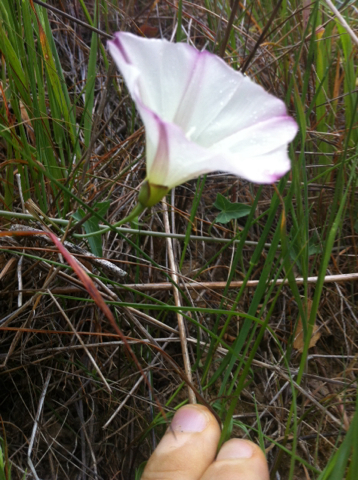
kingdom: Plantae
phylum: Tracheophyta
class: Magnoliopsida
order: Solanales
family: Convolvulaceae
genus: Calystegia
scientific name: Calystegia purpurata
